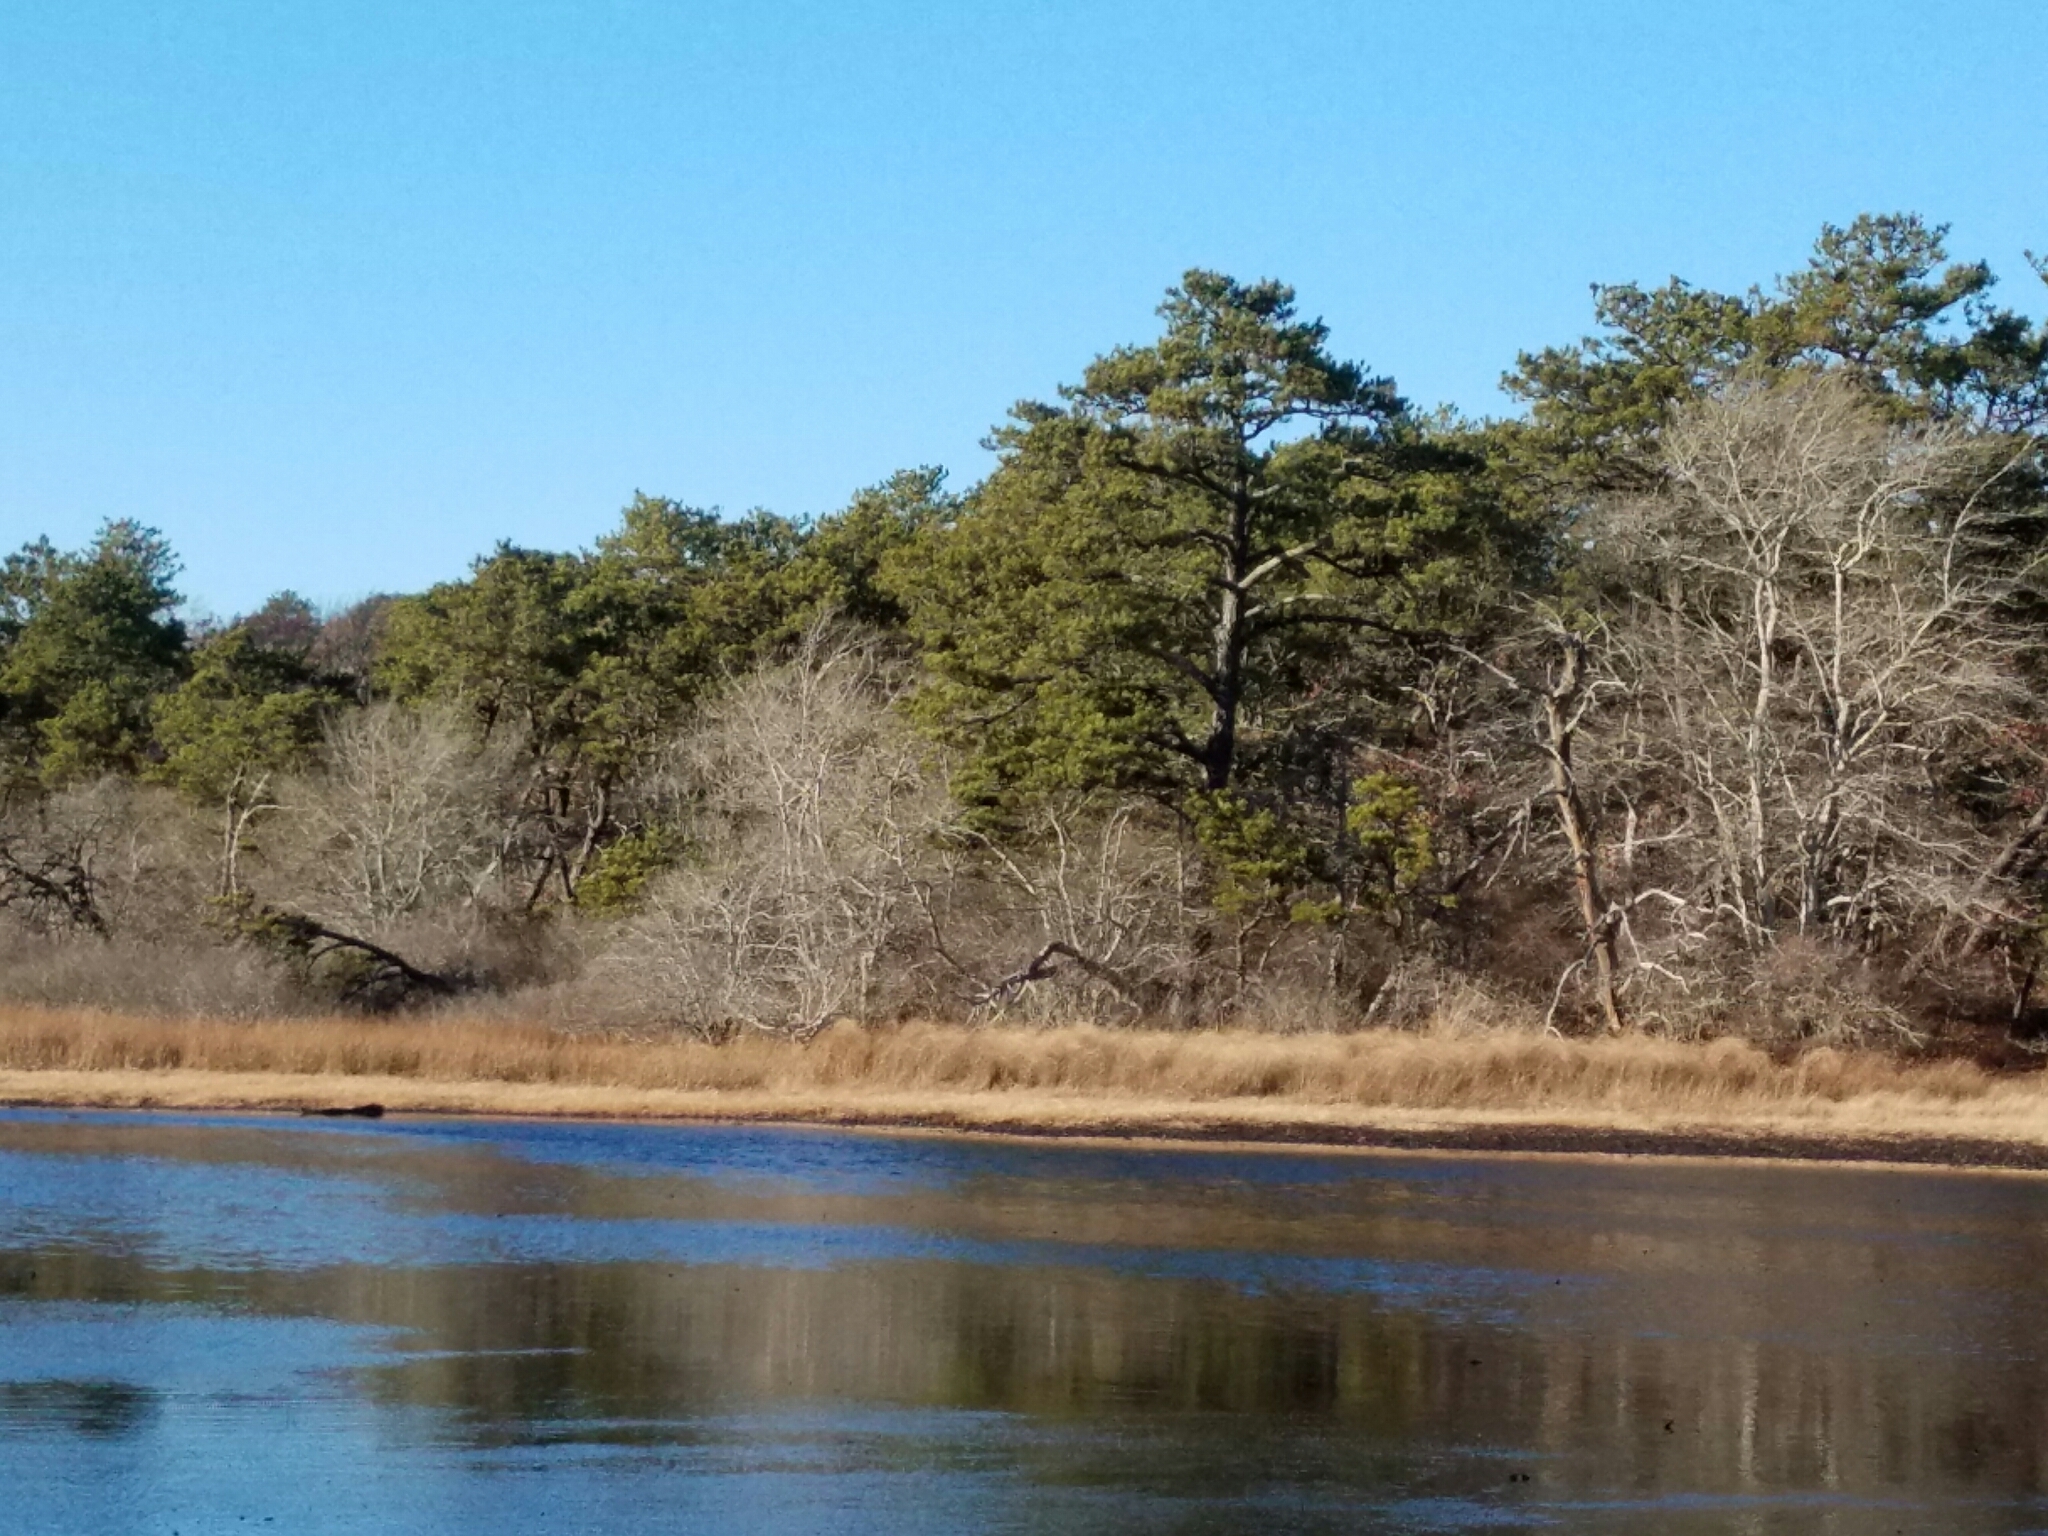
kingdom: Plantae
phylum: Tracheophyta
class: Pinopsida
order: Pinales
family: Pinaceae
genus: Pinus
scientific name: Pinus rigida
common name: Pitch pine
